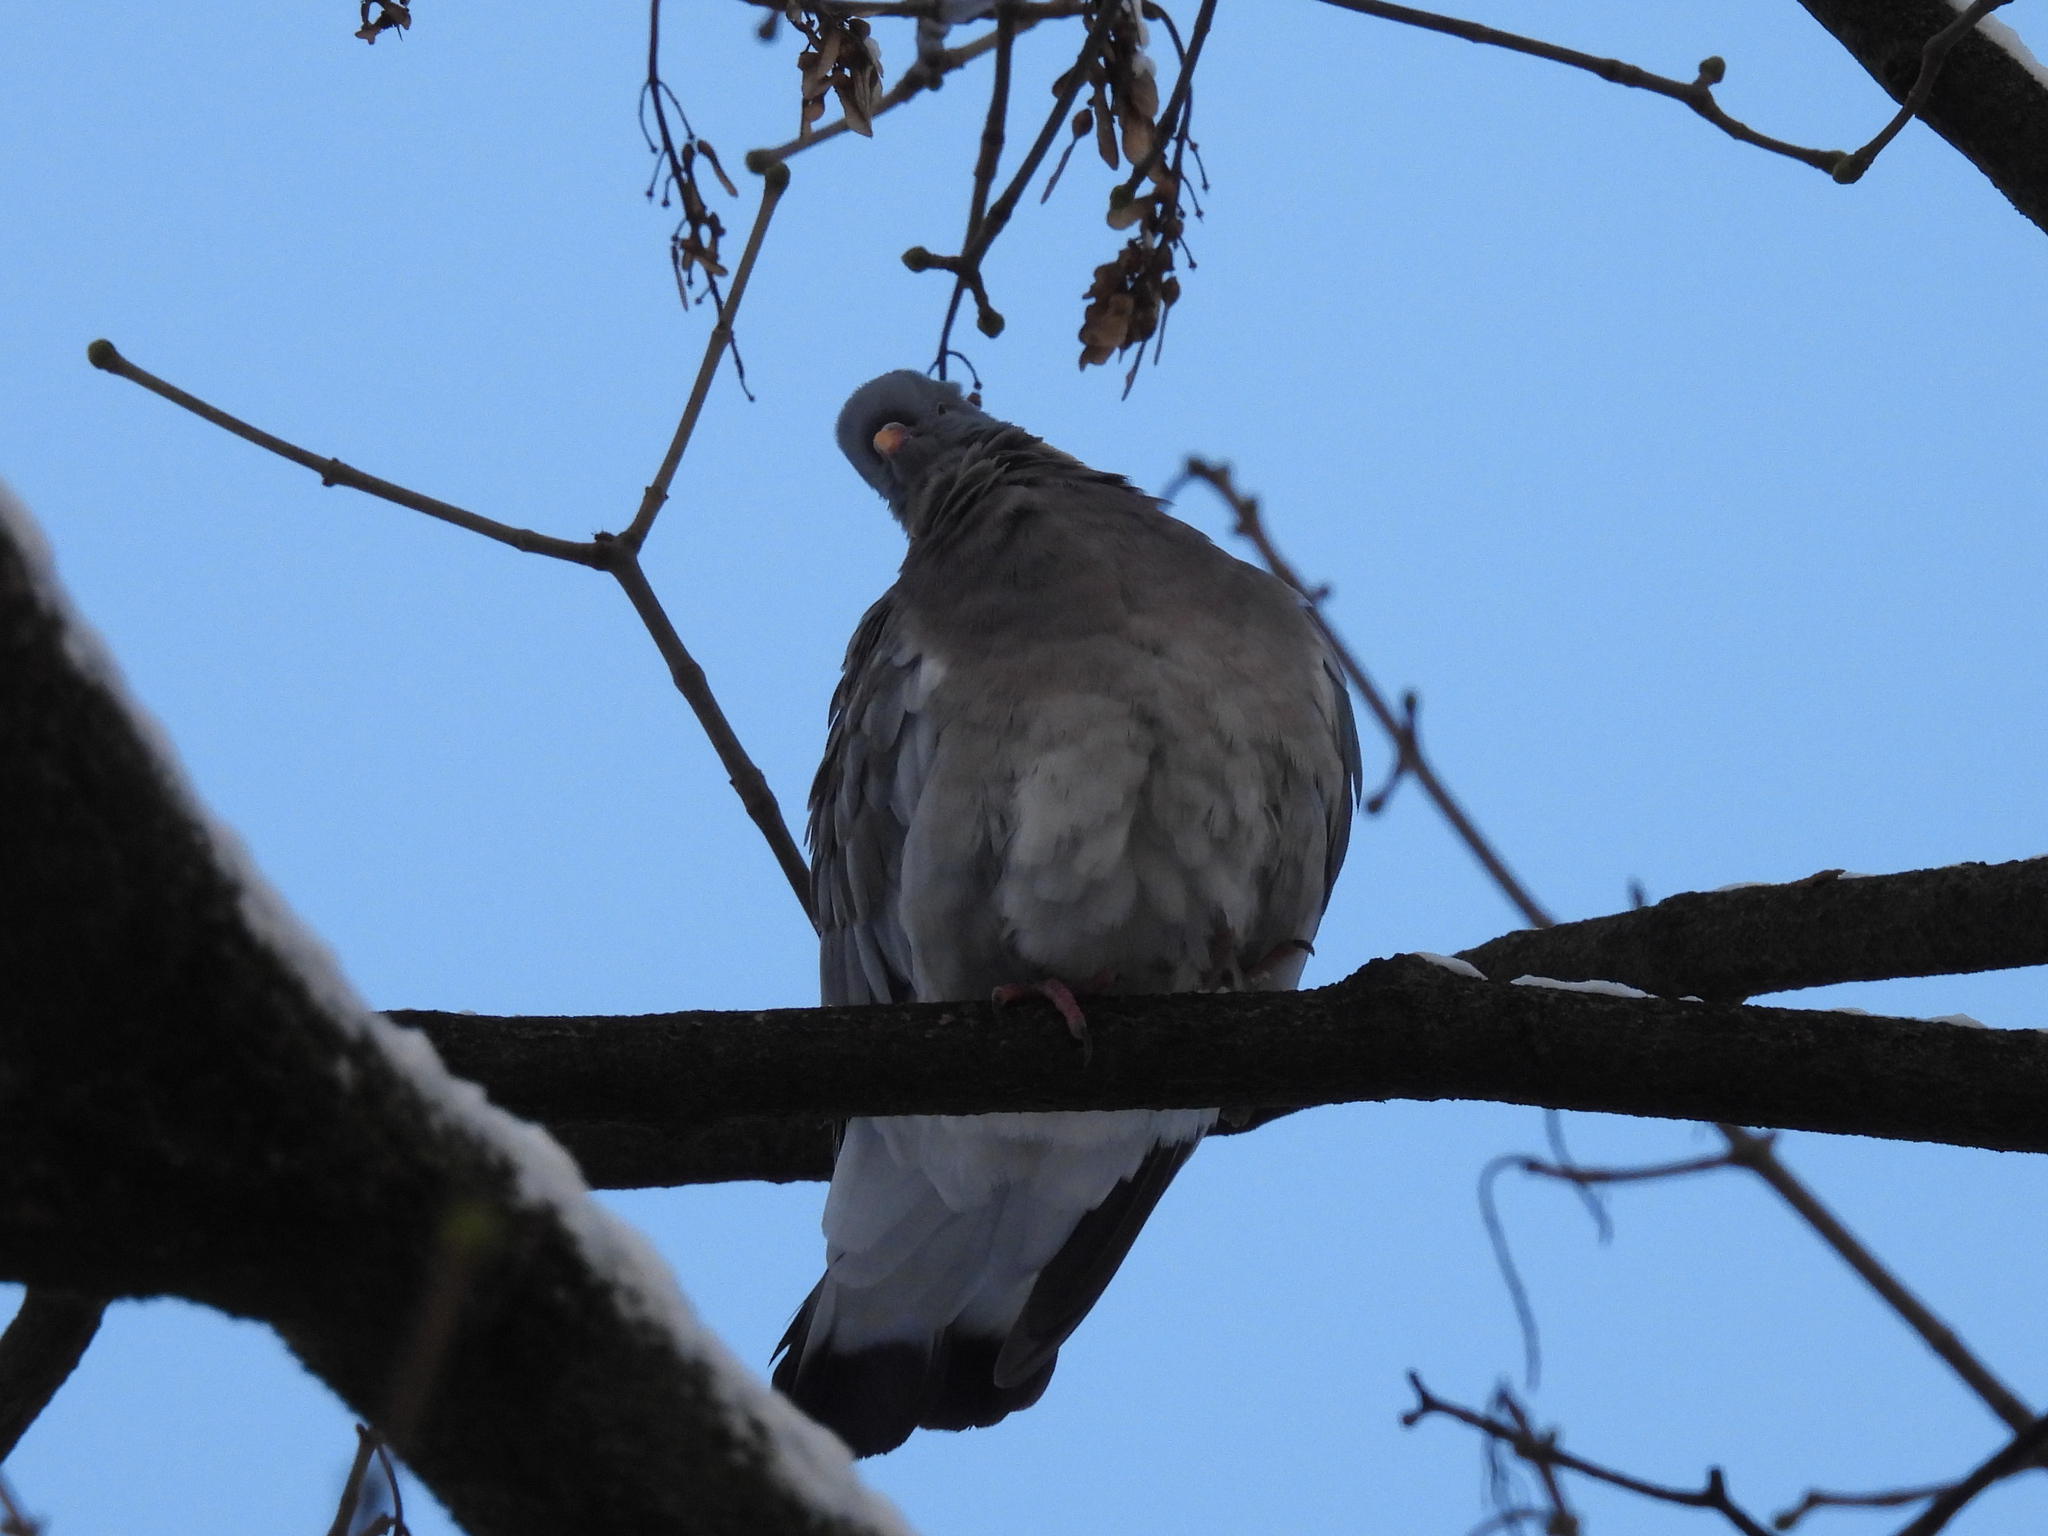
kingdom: Animalia
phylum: Chordata
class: Aves
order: Columbiformes
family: Columbidae
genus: Columba
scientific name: Columba palumbus
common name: Common wood pigeon
